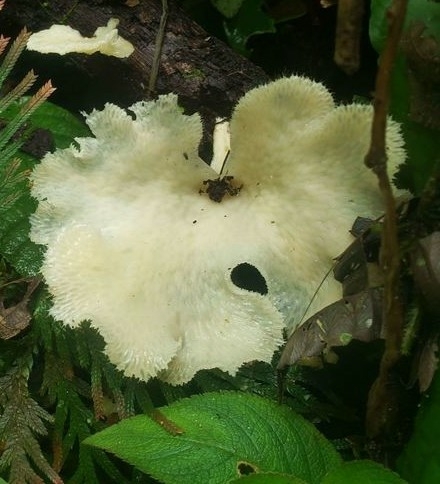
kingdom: Fungi
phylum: Basidiomycota
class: Agaricomycetes
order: Polyporales
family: Polyporaceae
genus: Favolus
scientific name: Favolus tenuiculus
